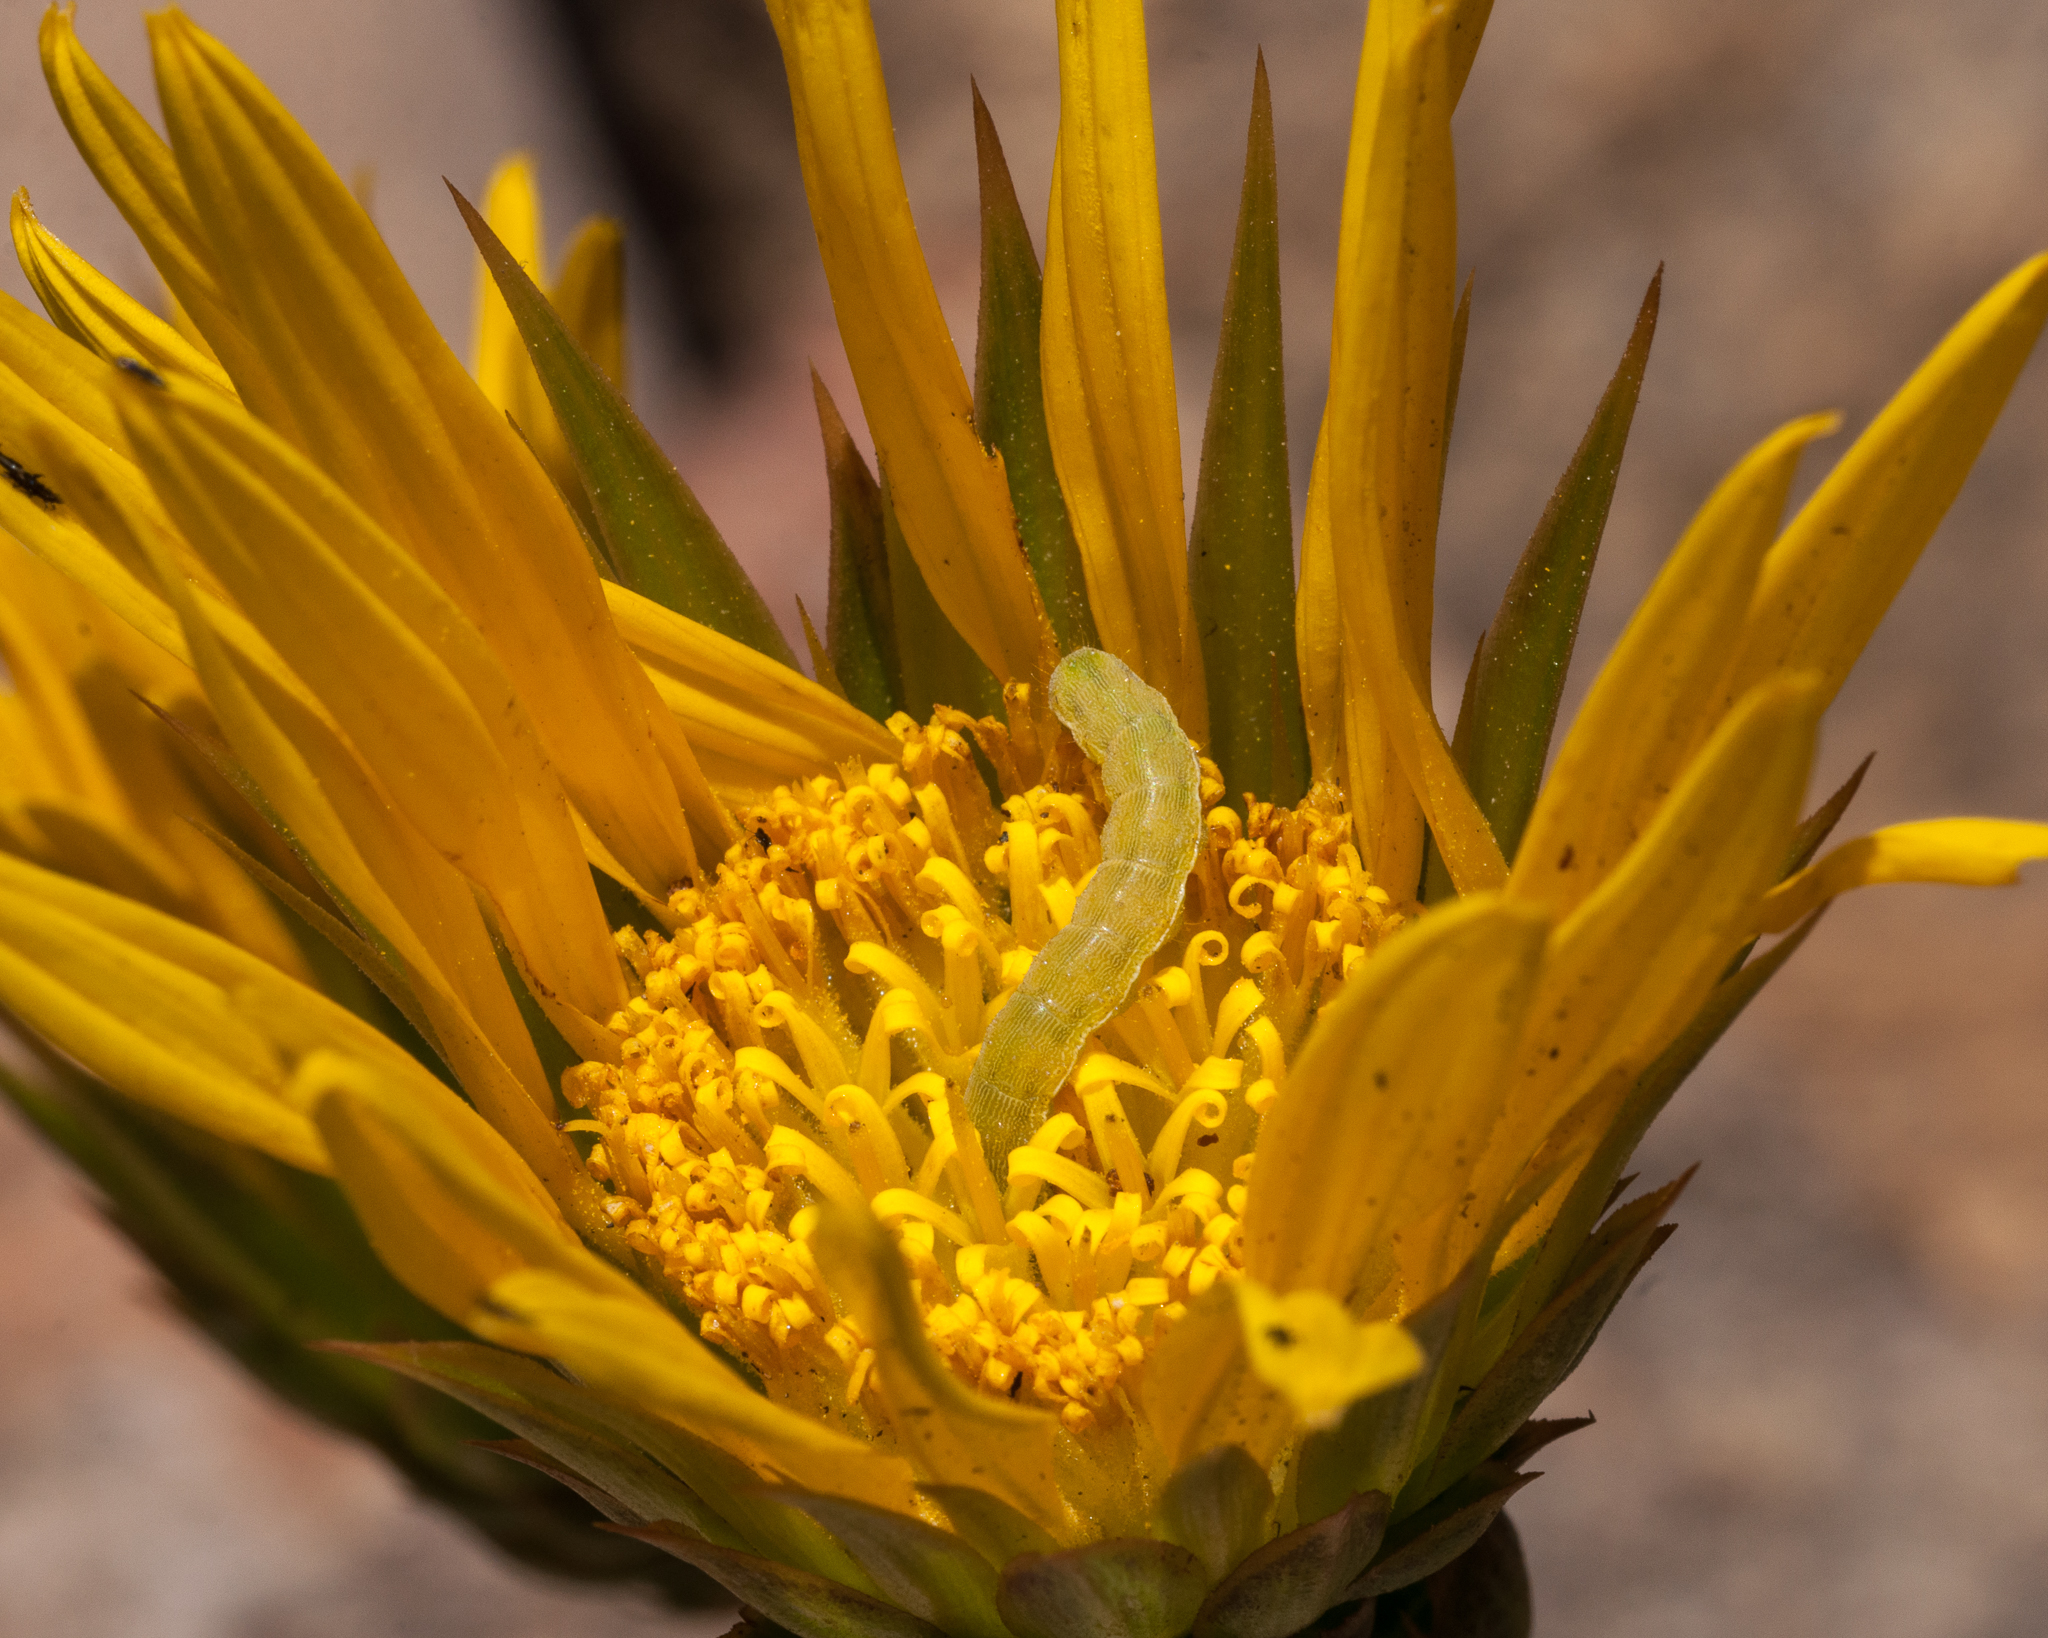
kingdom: Plantae
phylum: Tracheophyta
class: Magnoliopsida
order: Asterales
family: Asteraceae
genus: Berkheya
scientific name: Berkheya herbacea
